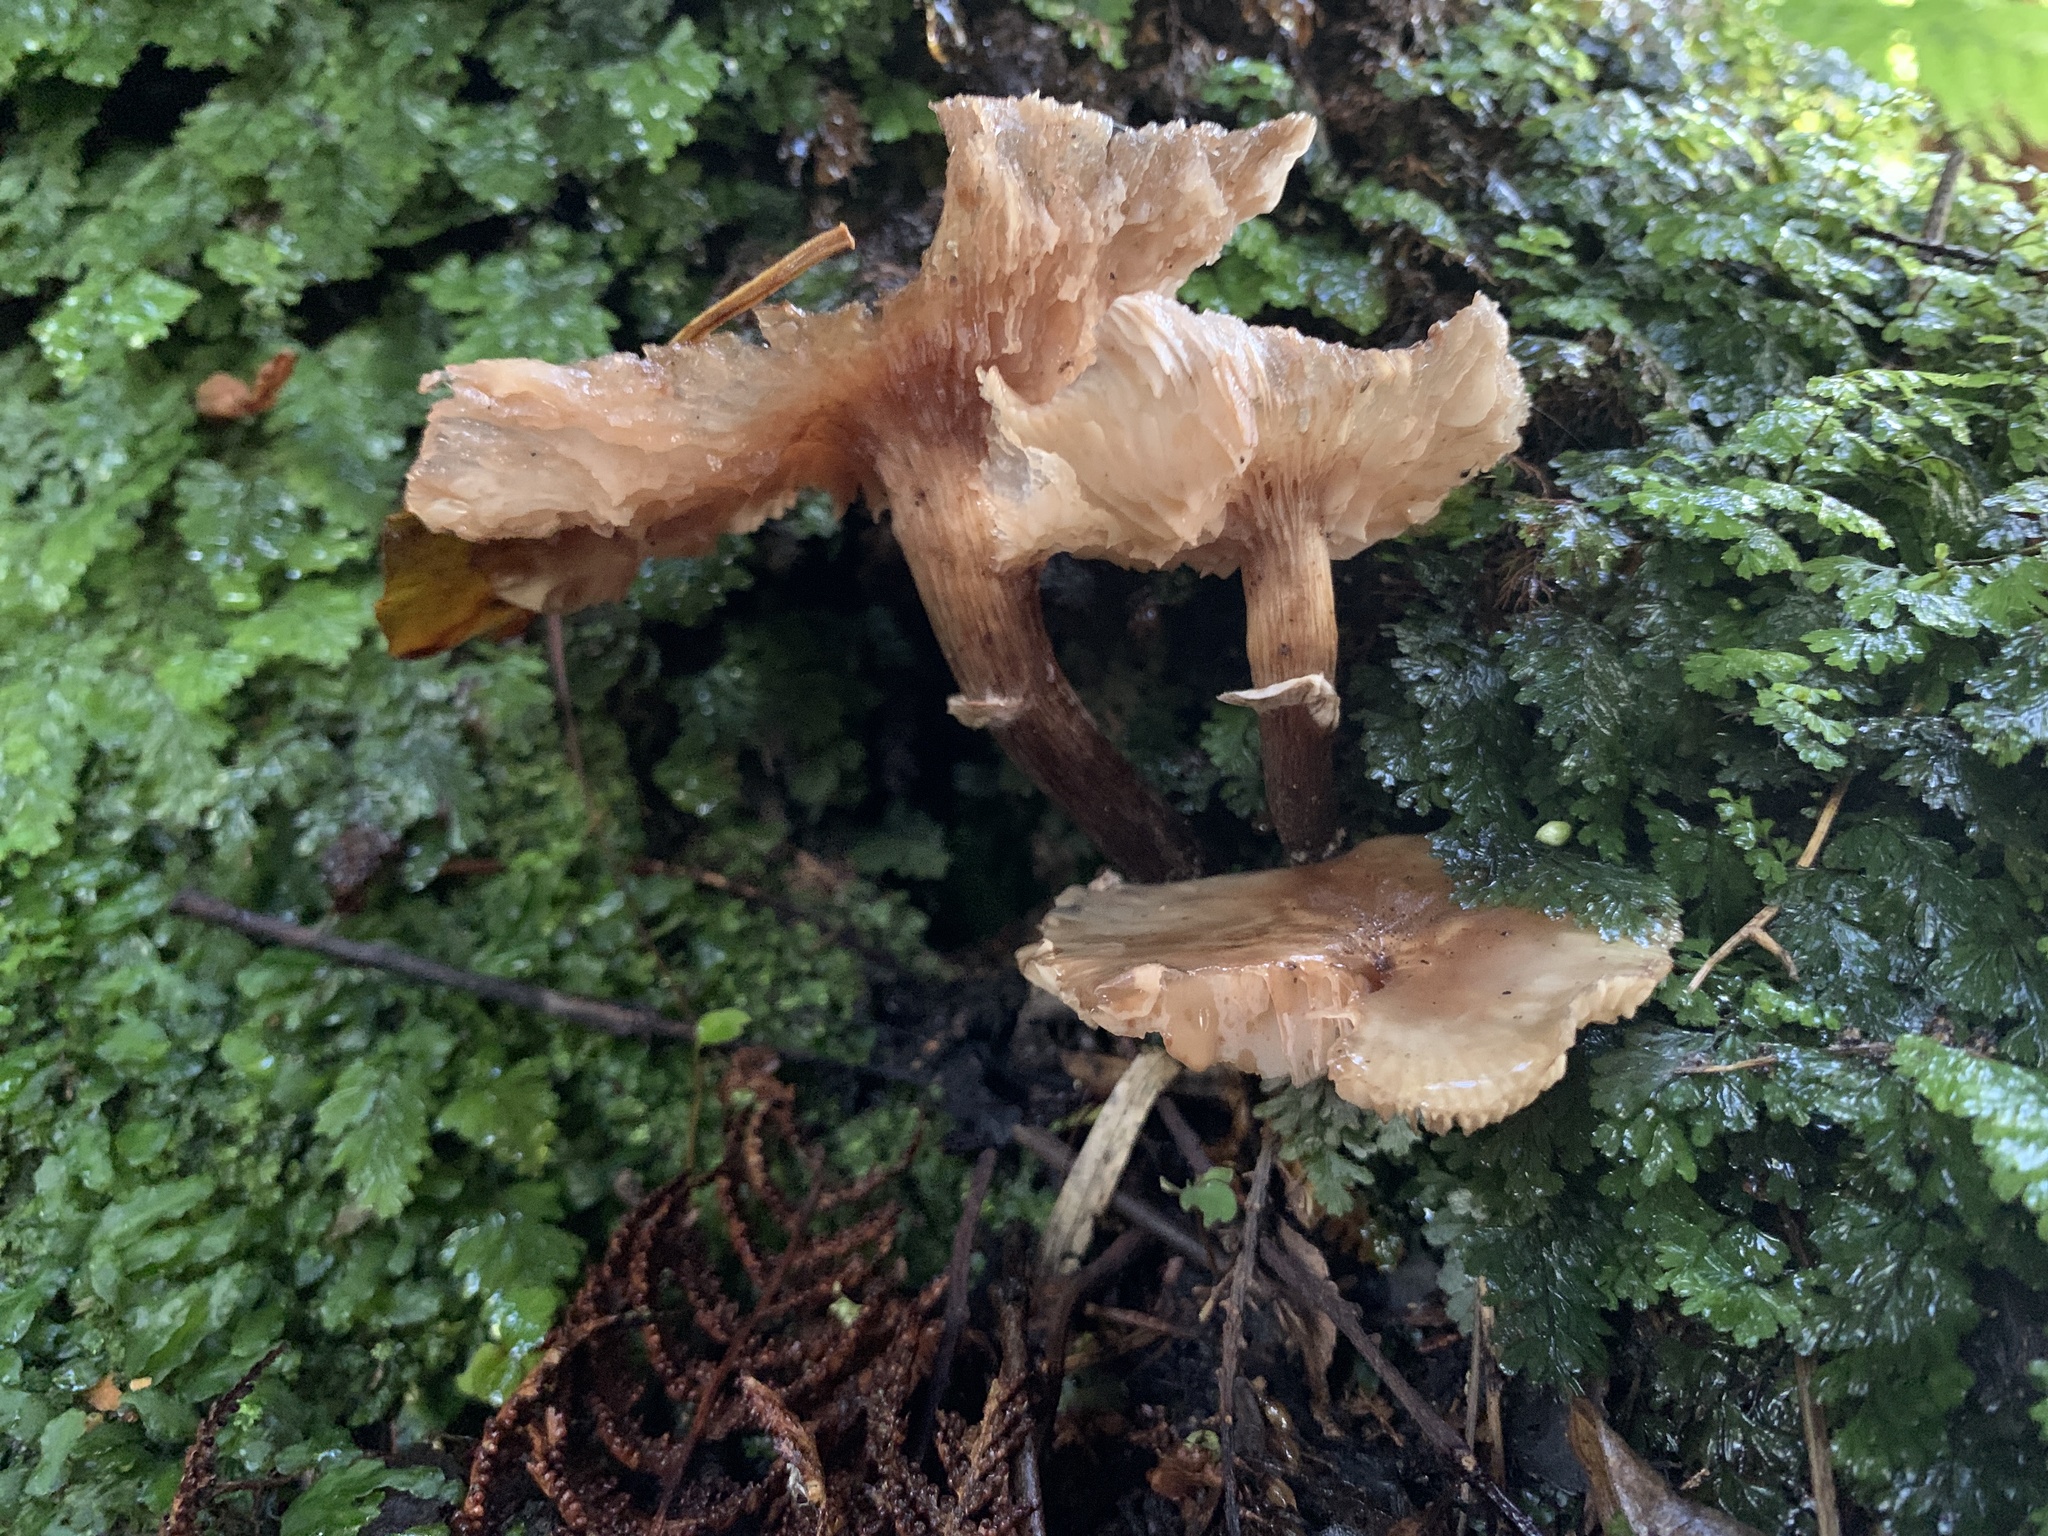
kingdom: Fungi
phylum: Basidiomycota
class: Agaricomycetes
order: Agaricales
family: Physalacriaceae
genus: Armillaria
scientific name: Armillaria novae-zelandiae
